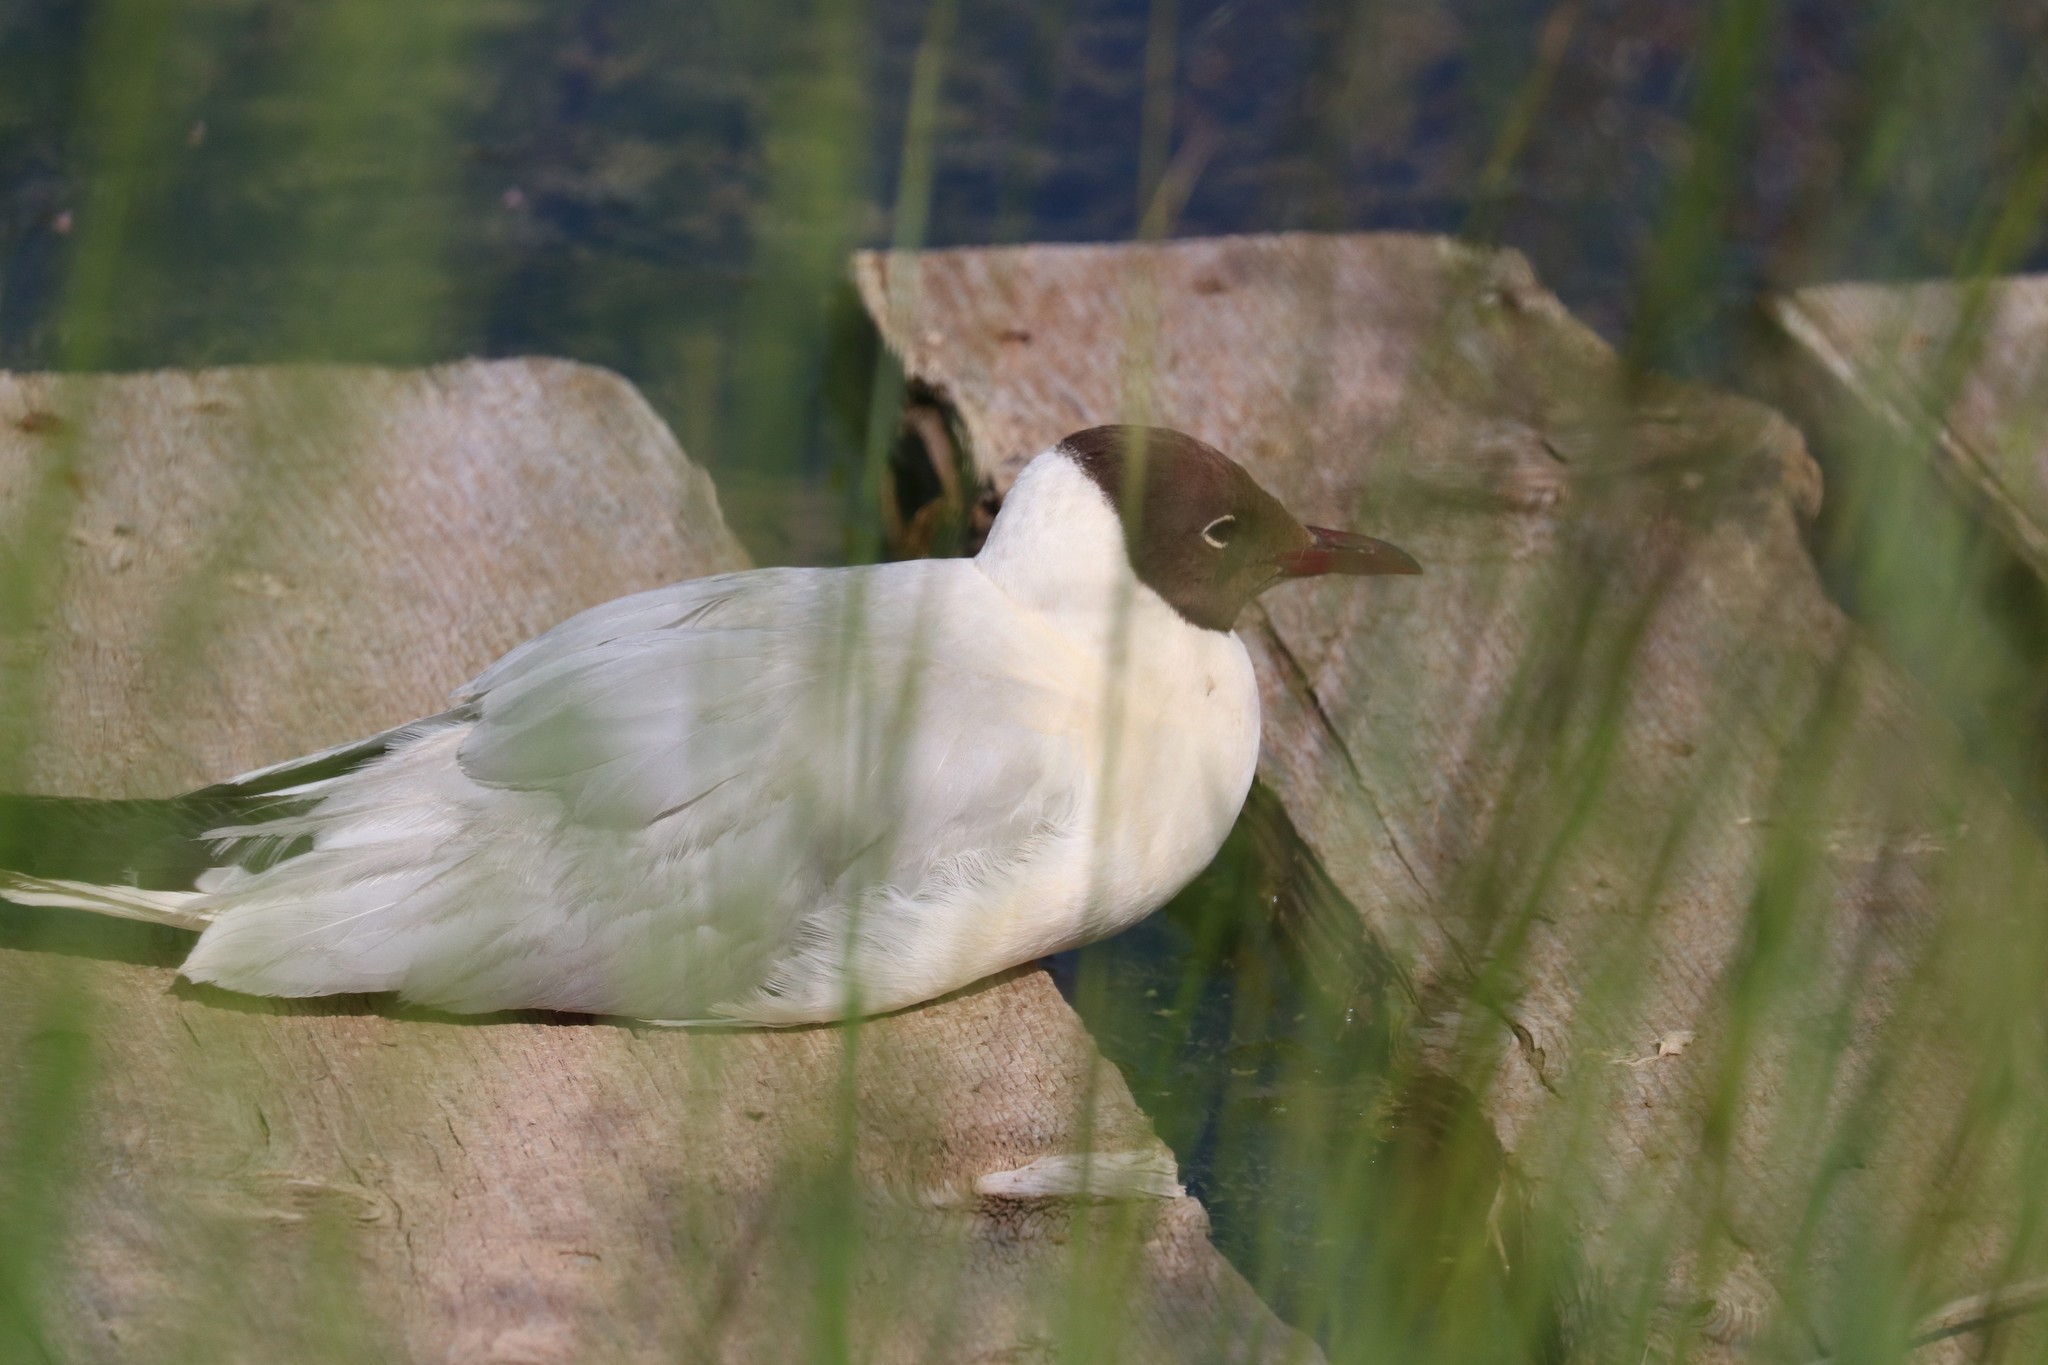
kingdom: Animalia
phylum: Chordata
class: Aves
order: Charadriiformes
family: Laridae
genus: Chroicocephalus
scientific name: Chroicocephalus ridibundus
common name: Black-headed gull
